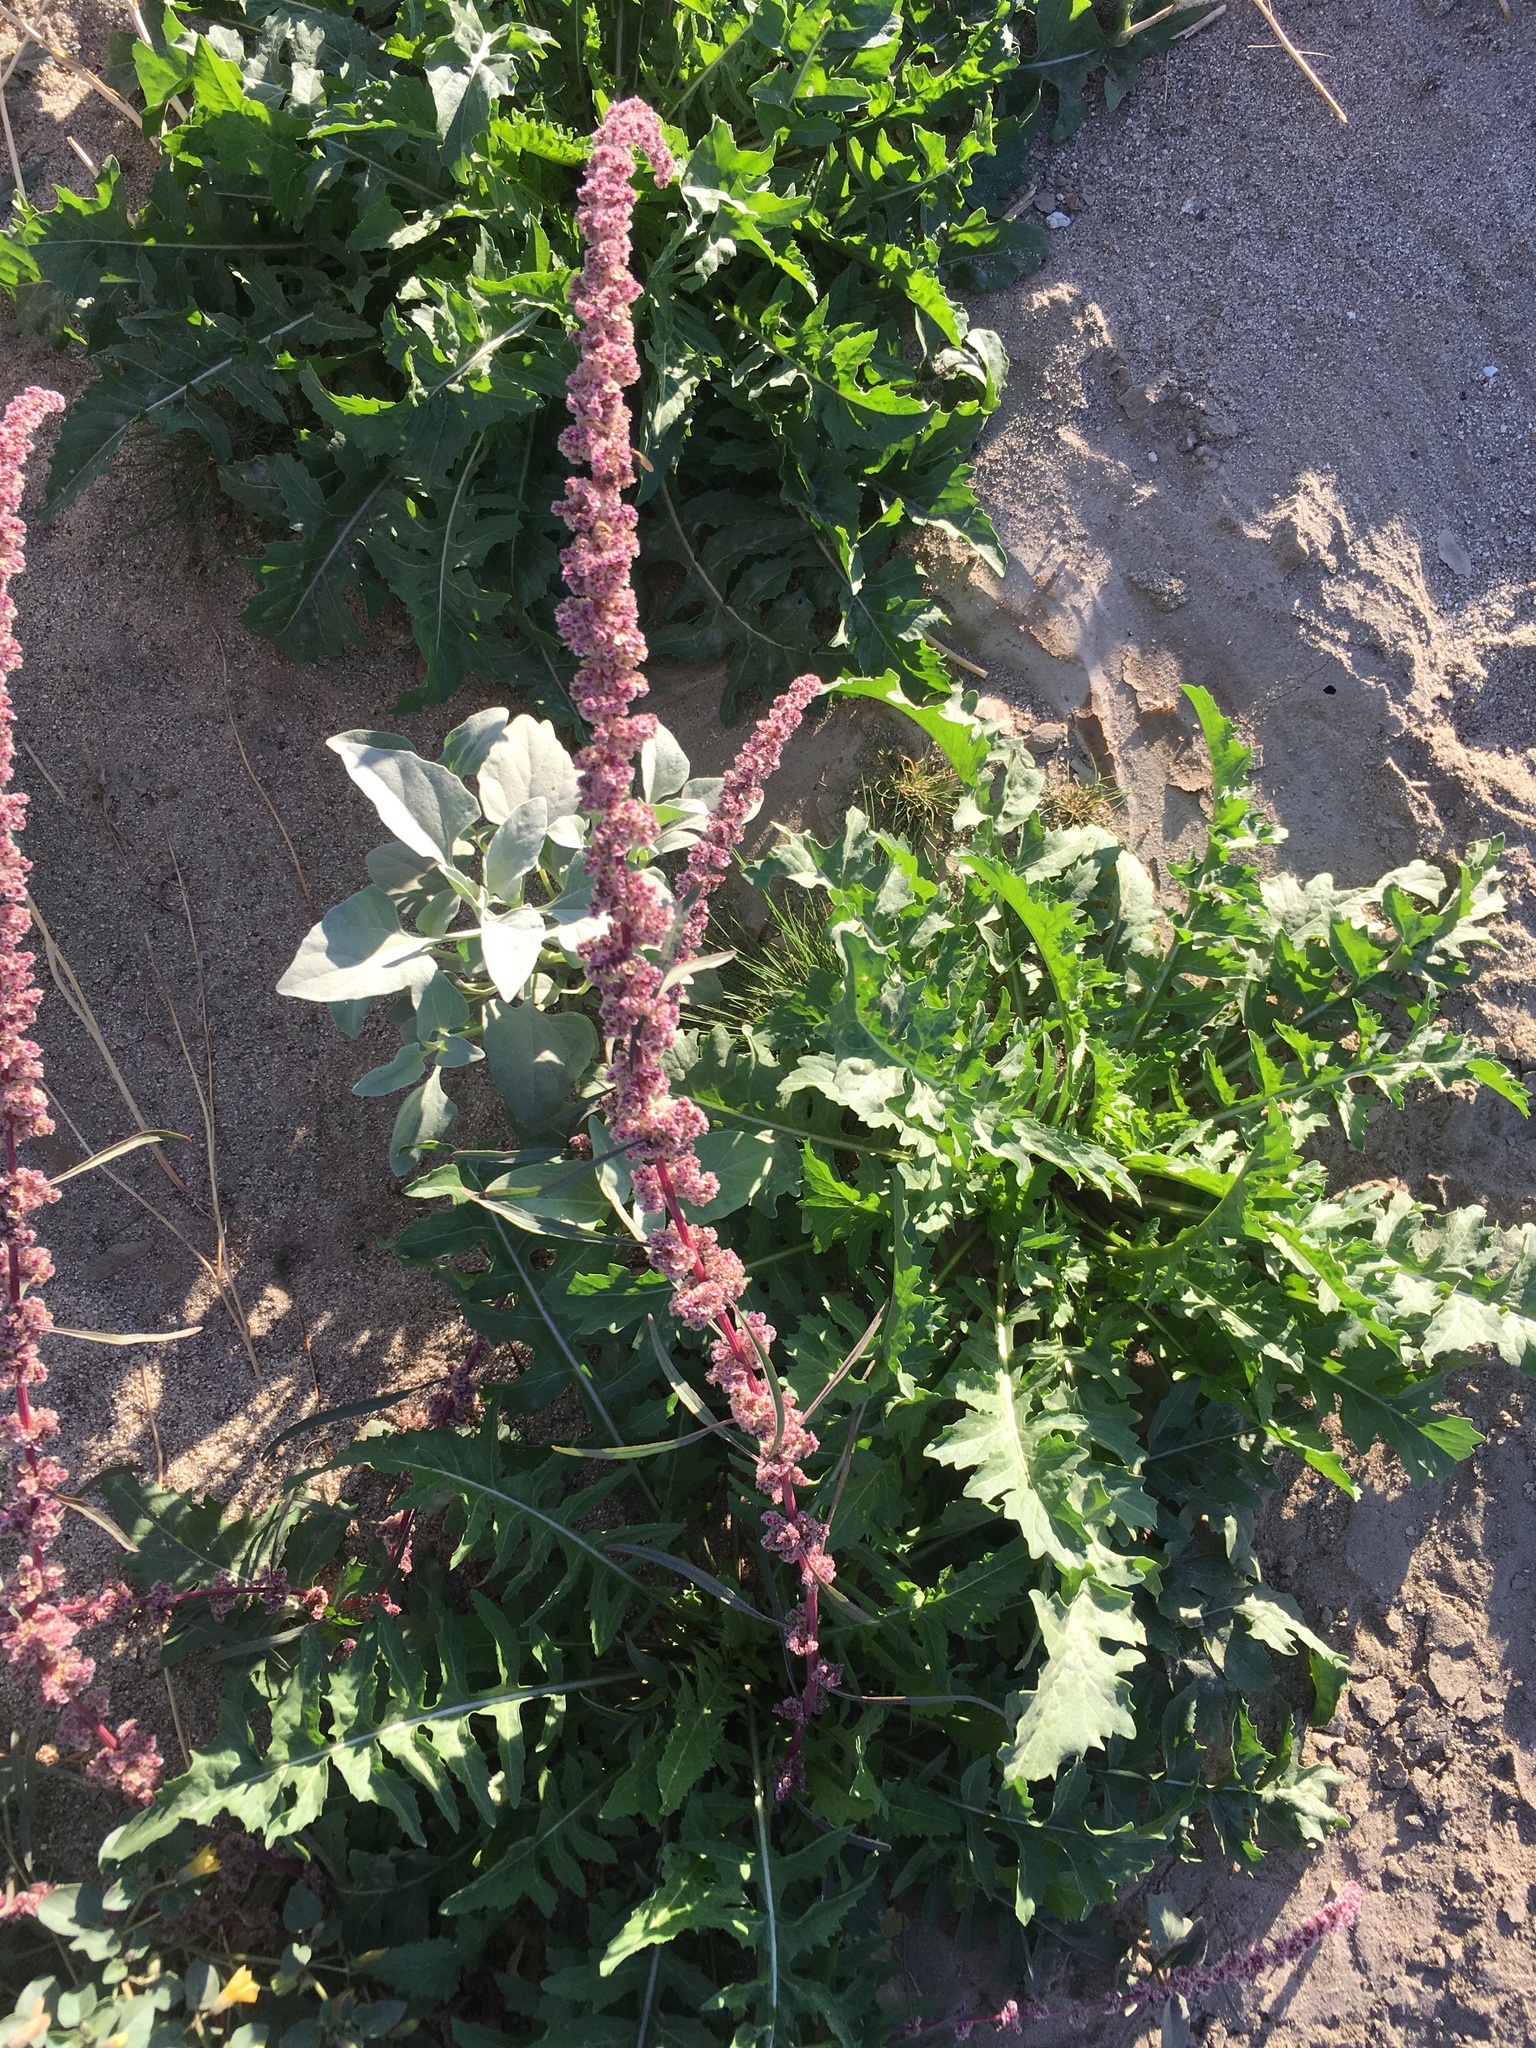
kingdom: Plantae
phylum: Tracheophyta
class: Magnoliopsida
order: Caryophyllales
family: Amaranthaceae
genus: Amaranthus
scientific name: Amaranthus fimbriatus
